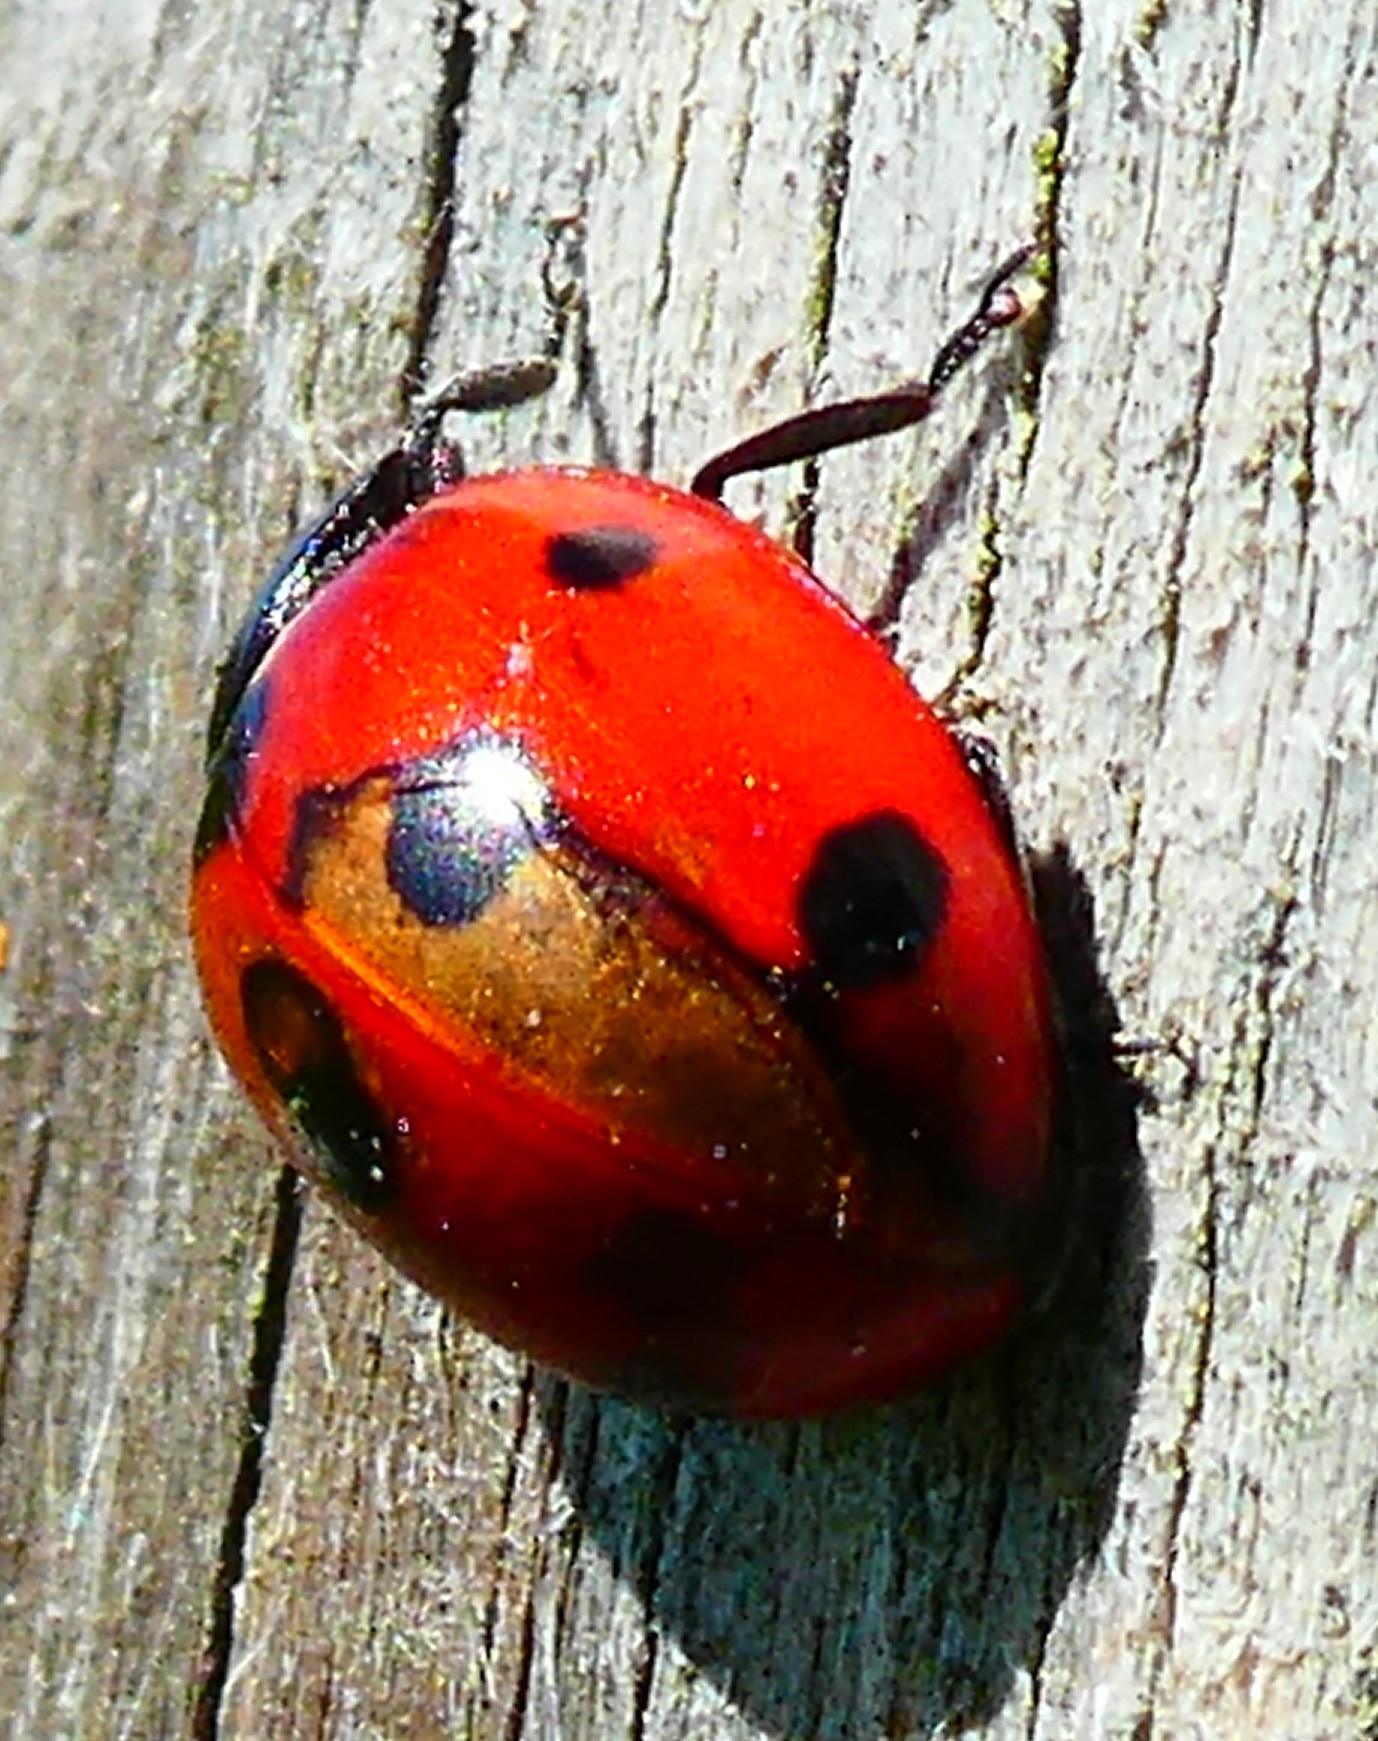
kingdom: Animalia
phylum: Arthropoda
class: Insecta
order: Coleoptera
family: Coccinellidae
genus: Coccinella
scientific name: Coccinella septempunctata
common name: Sevenspotted lady beetle
